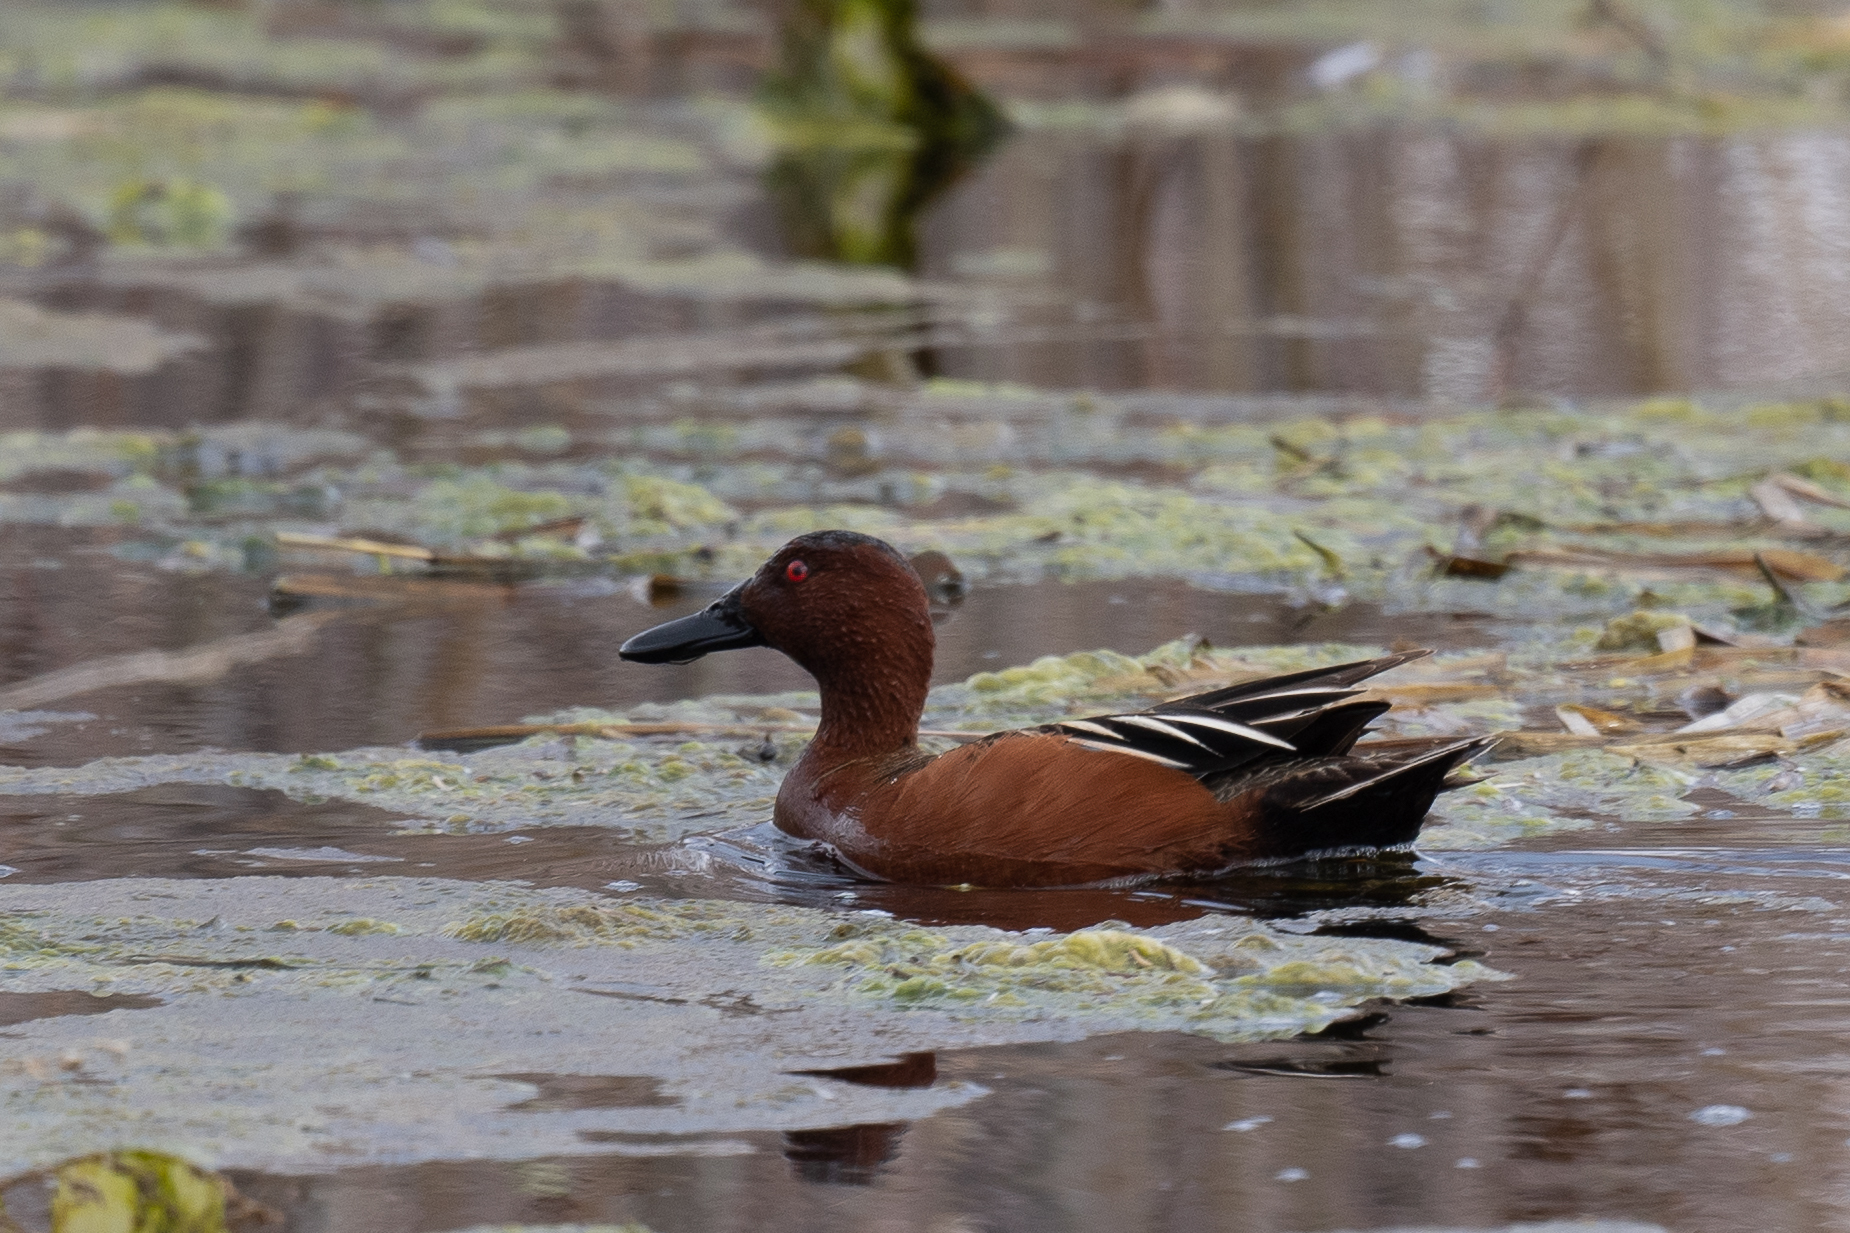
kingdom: Animalia
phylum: Chordata
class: Aves
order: Anseriformes
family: Anatidae
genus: Spatula
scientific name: Spatula cyanoptera
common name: Cinnamon teal
